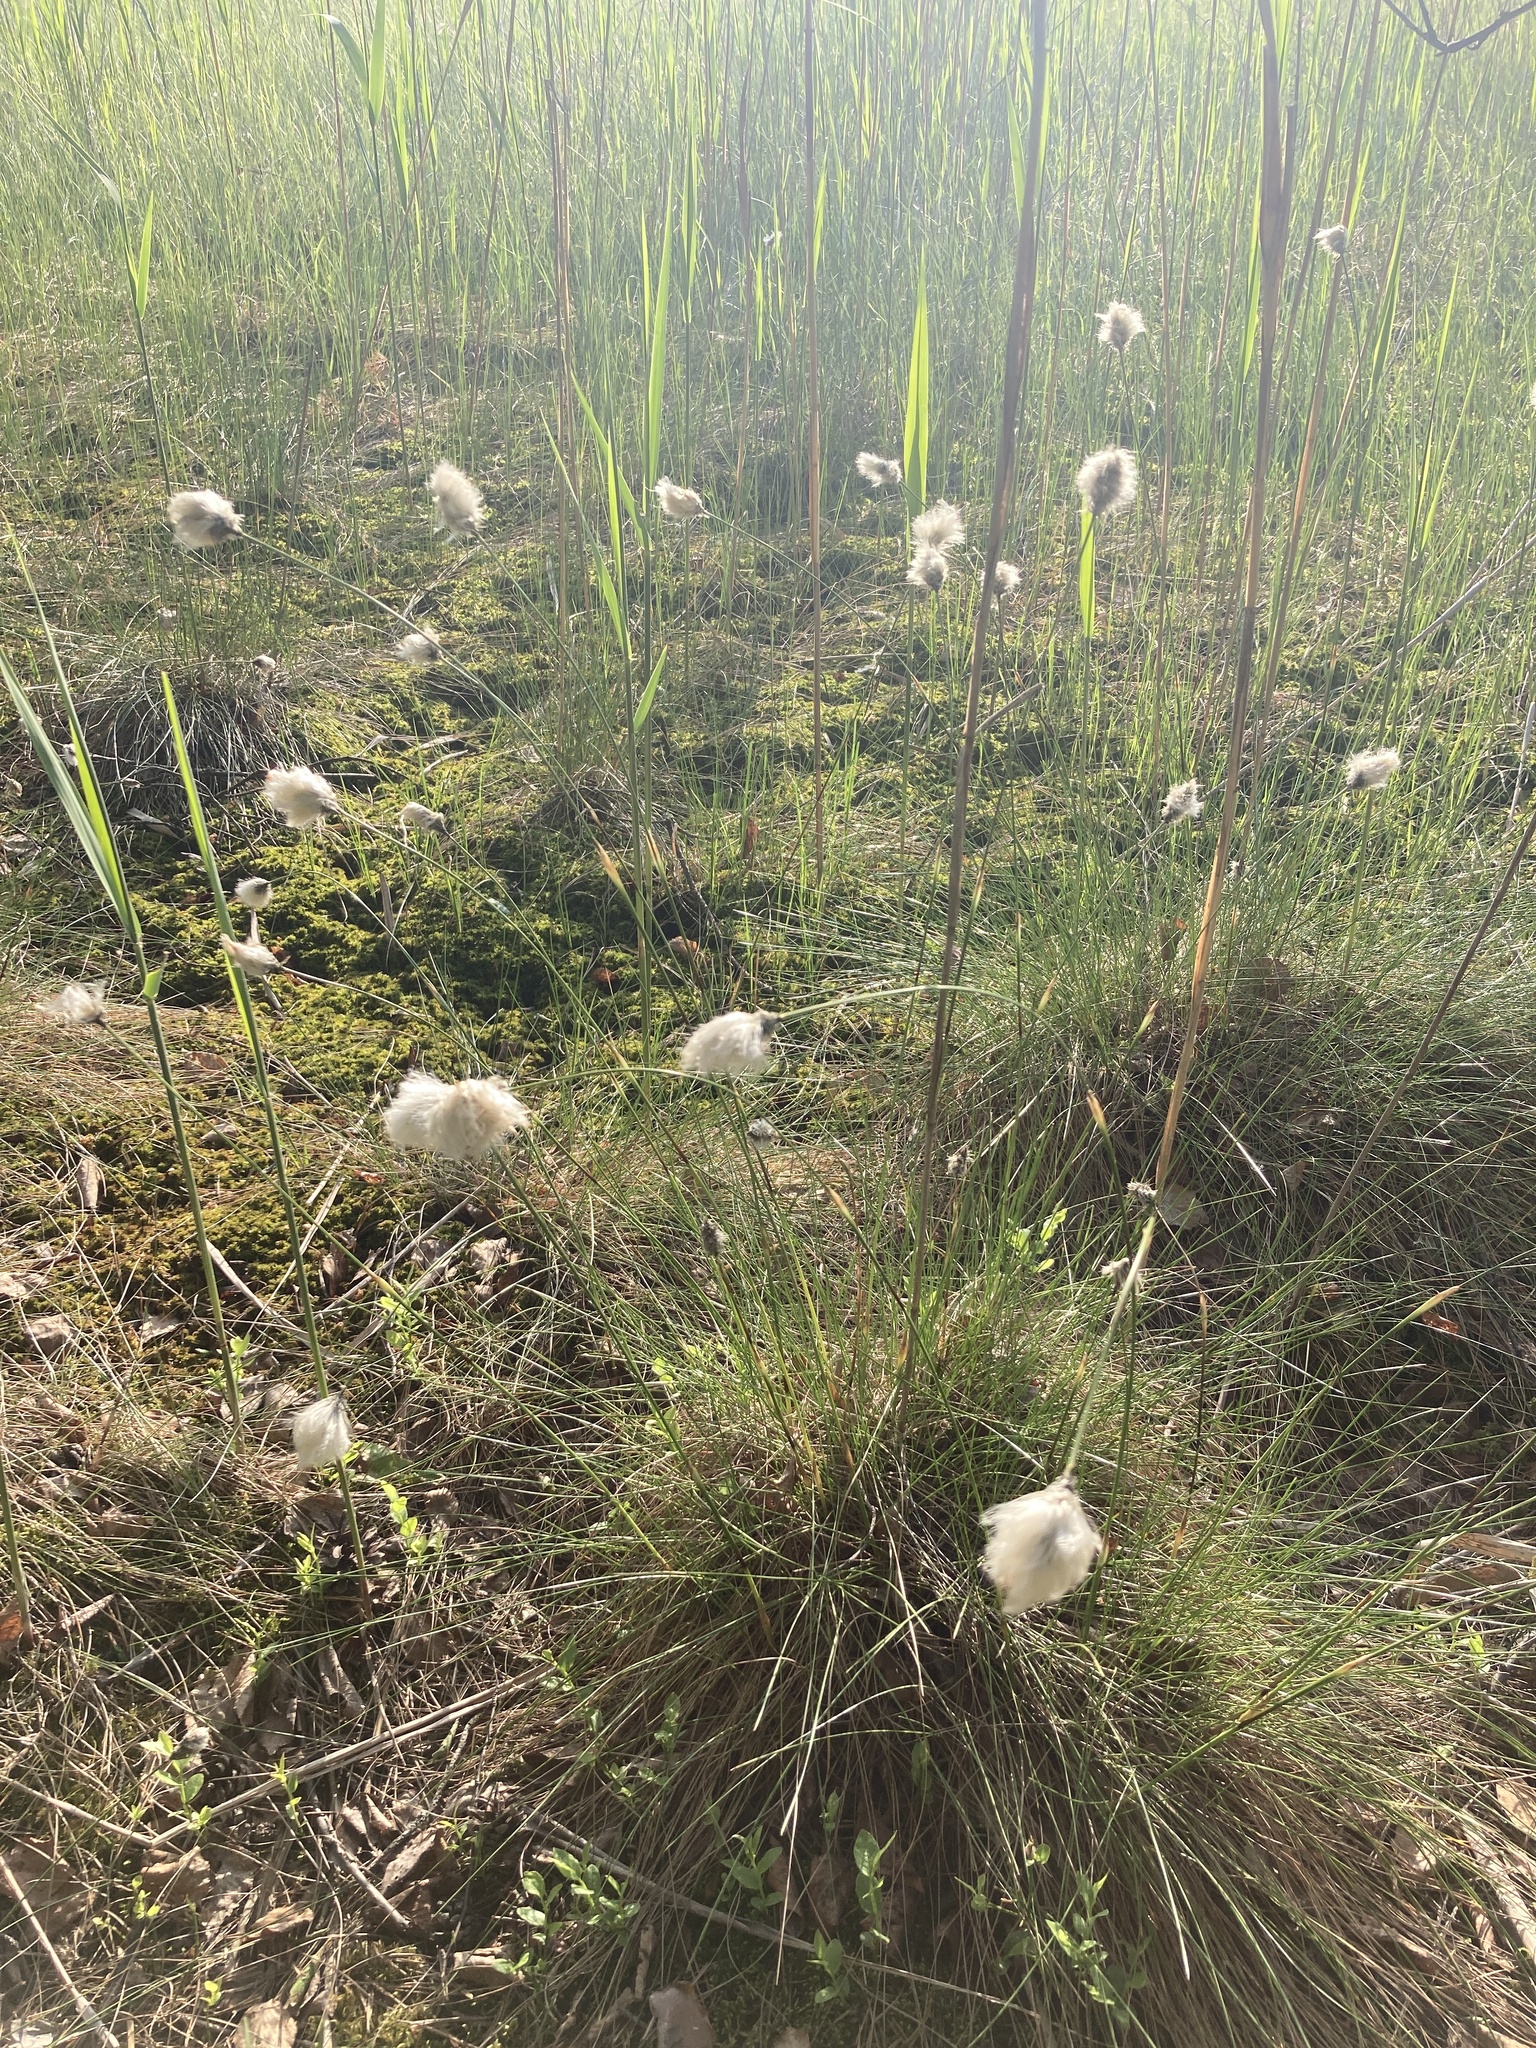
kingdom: Plantae
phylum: Tracheophyta
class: Liliopsida
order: Poales
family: Cyperaceae
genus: Eriophorum
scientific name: Eriophorum vaginatum
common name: Hare's-tail cottongrass
